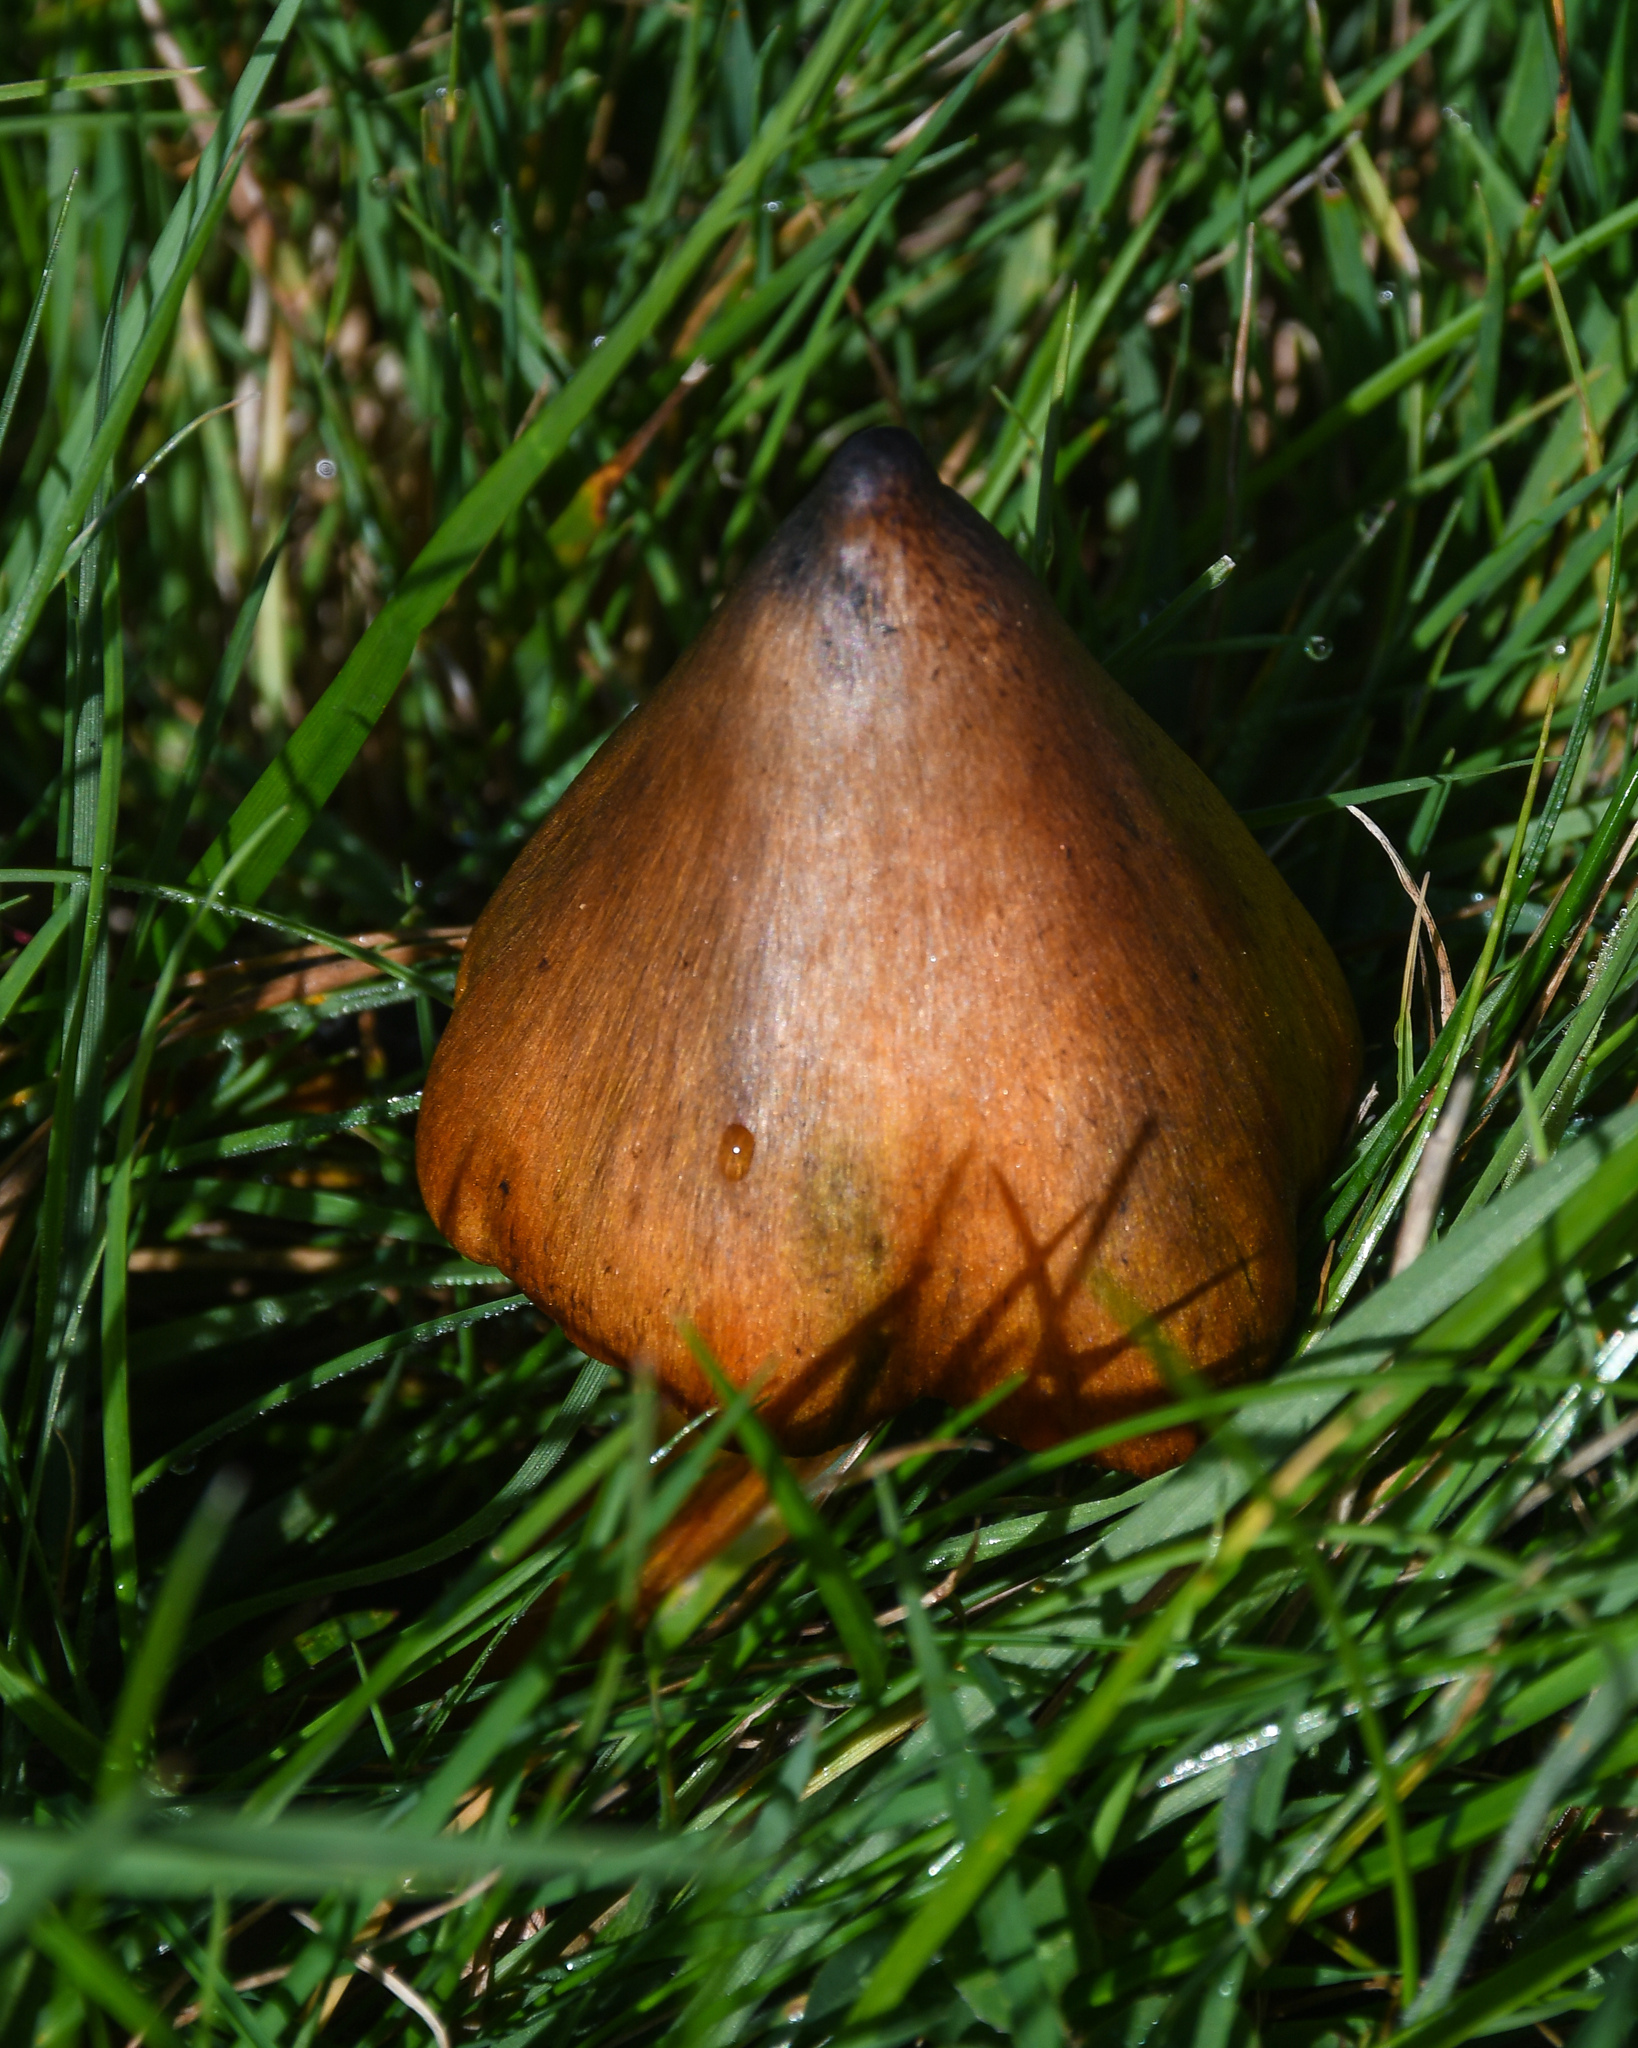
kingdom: Fungi
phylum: Basidiomycota
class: Agaricomycetes
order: Agaricales
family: Hygrophoraceae
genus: Hygrocybe
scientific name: Hygrocybe conica
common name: Blackening wax-cap
